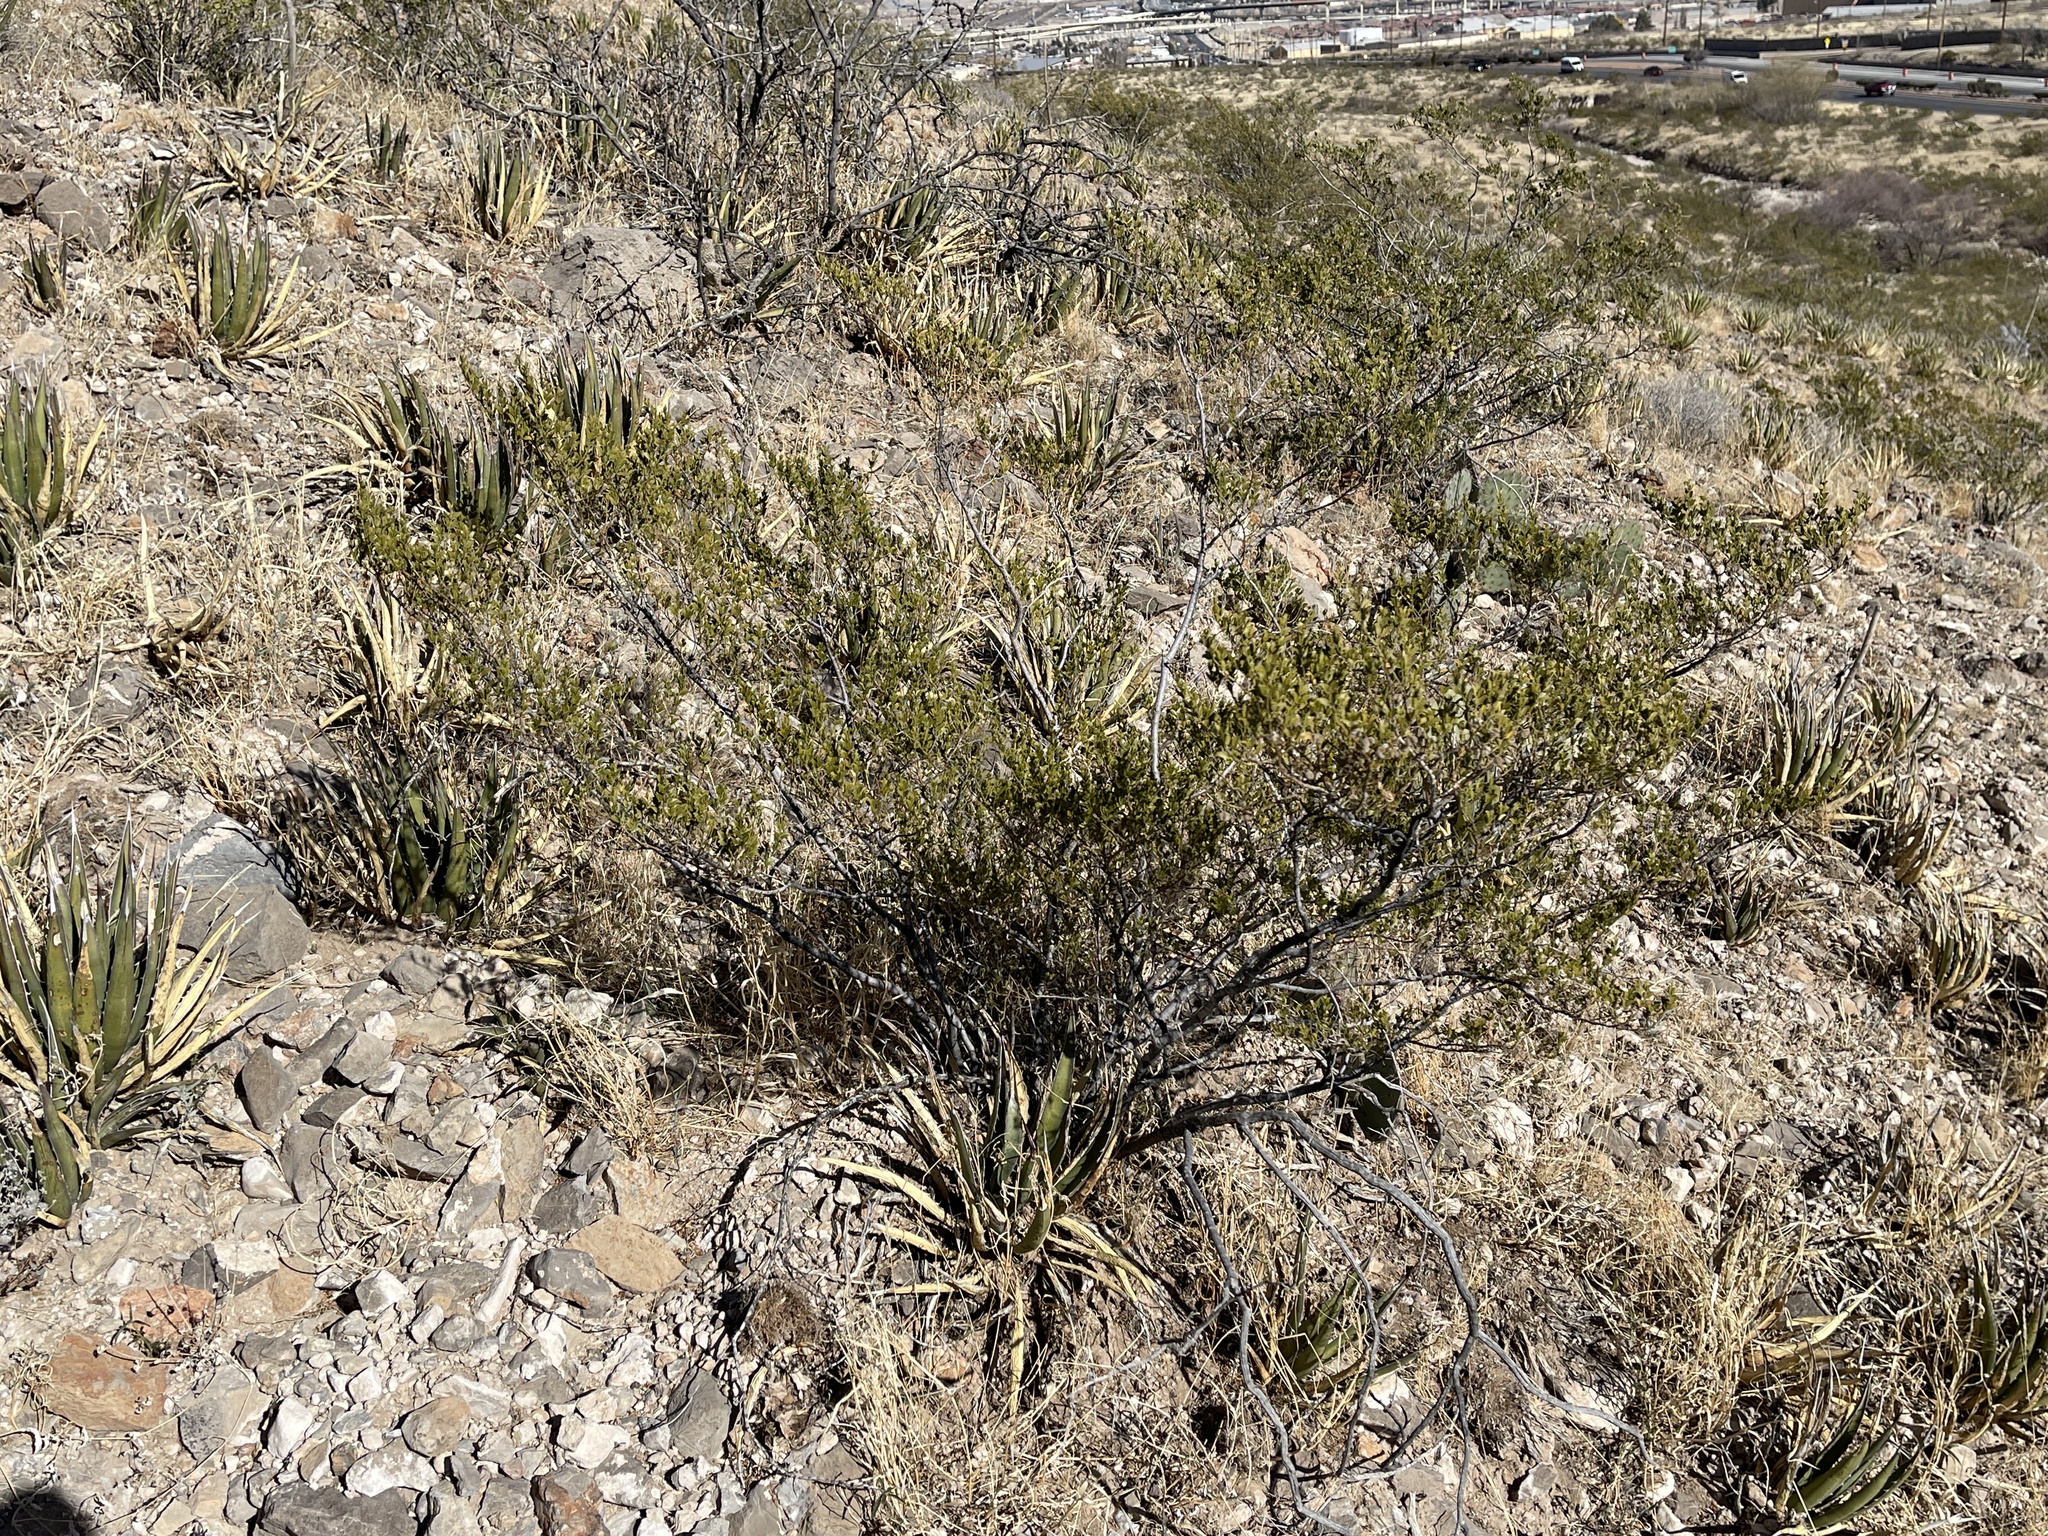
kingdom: Plantae
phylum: Tracheophyta
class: Magnoliopsida
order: Zygophyllales
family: Zygophyllaceae
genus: Larrea
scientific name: Larrea tridentata
